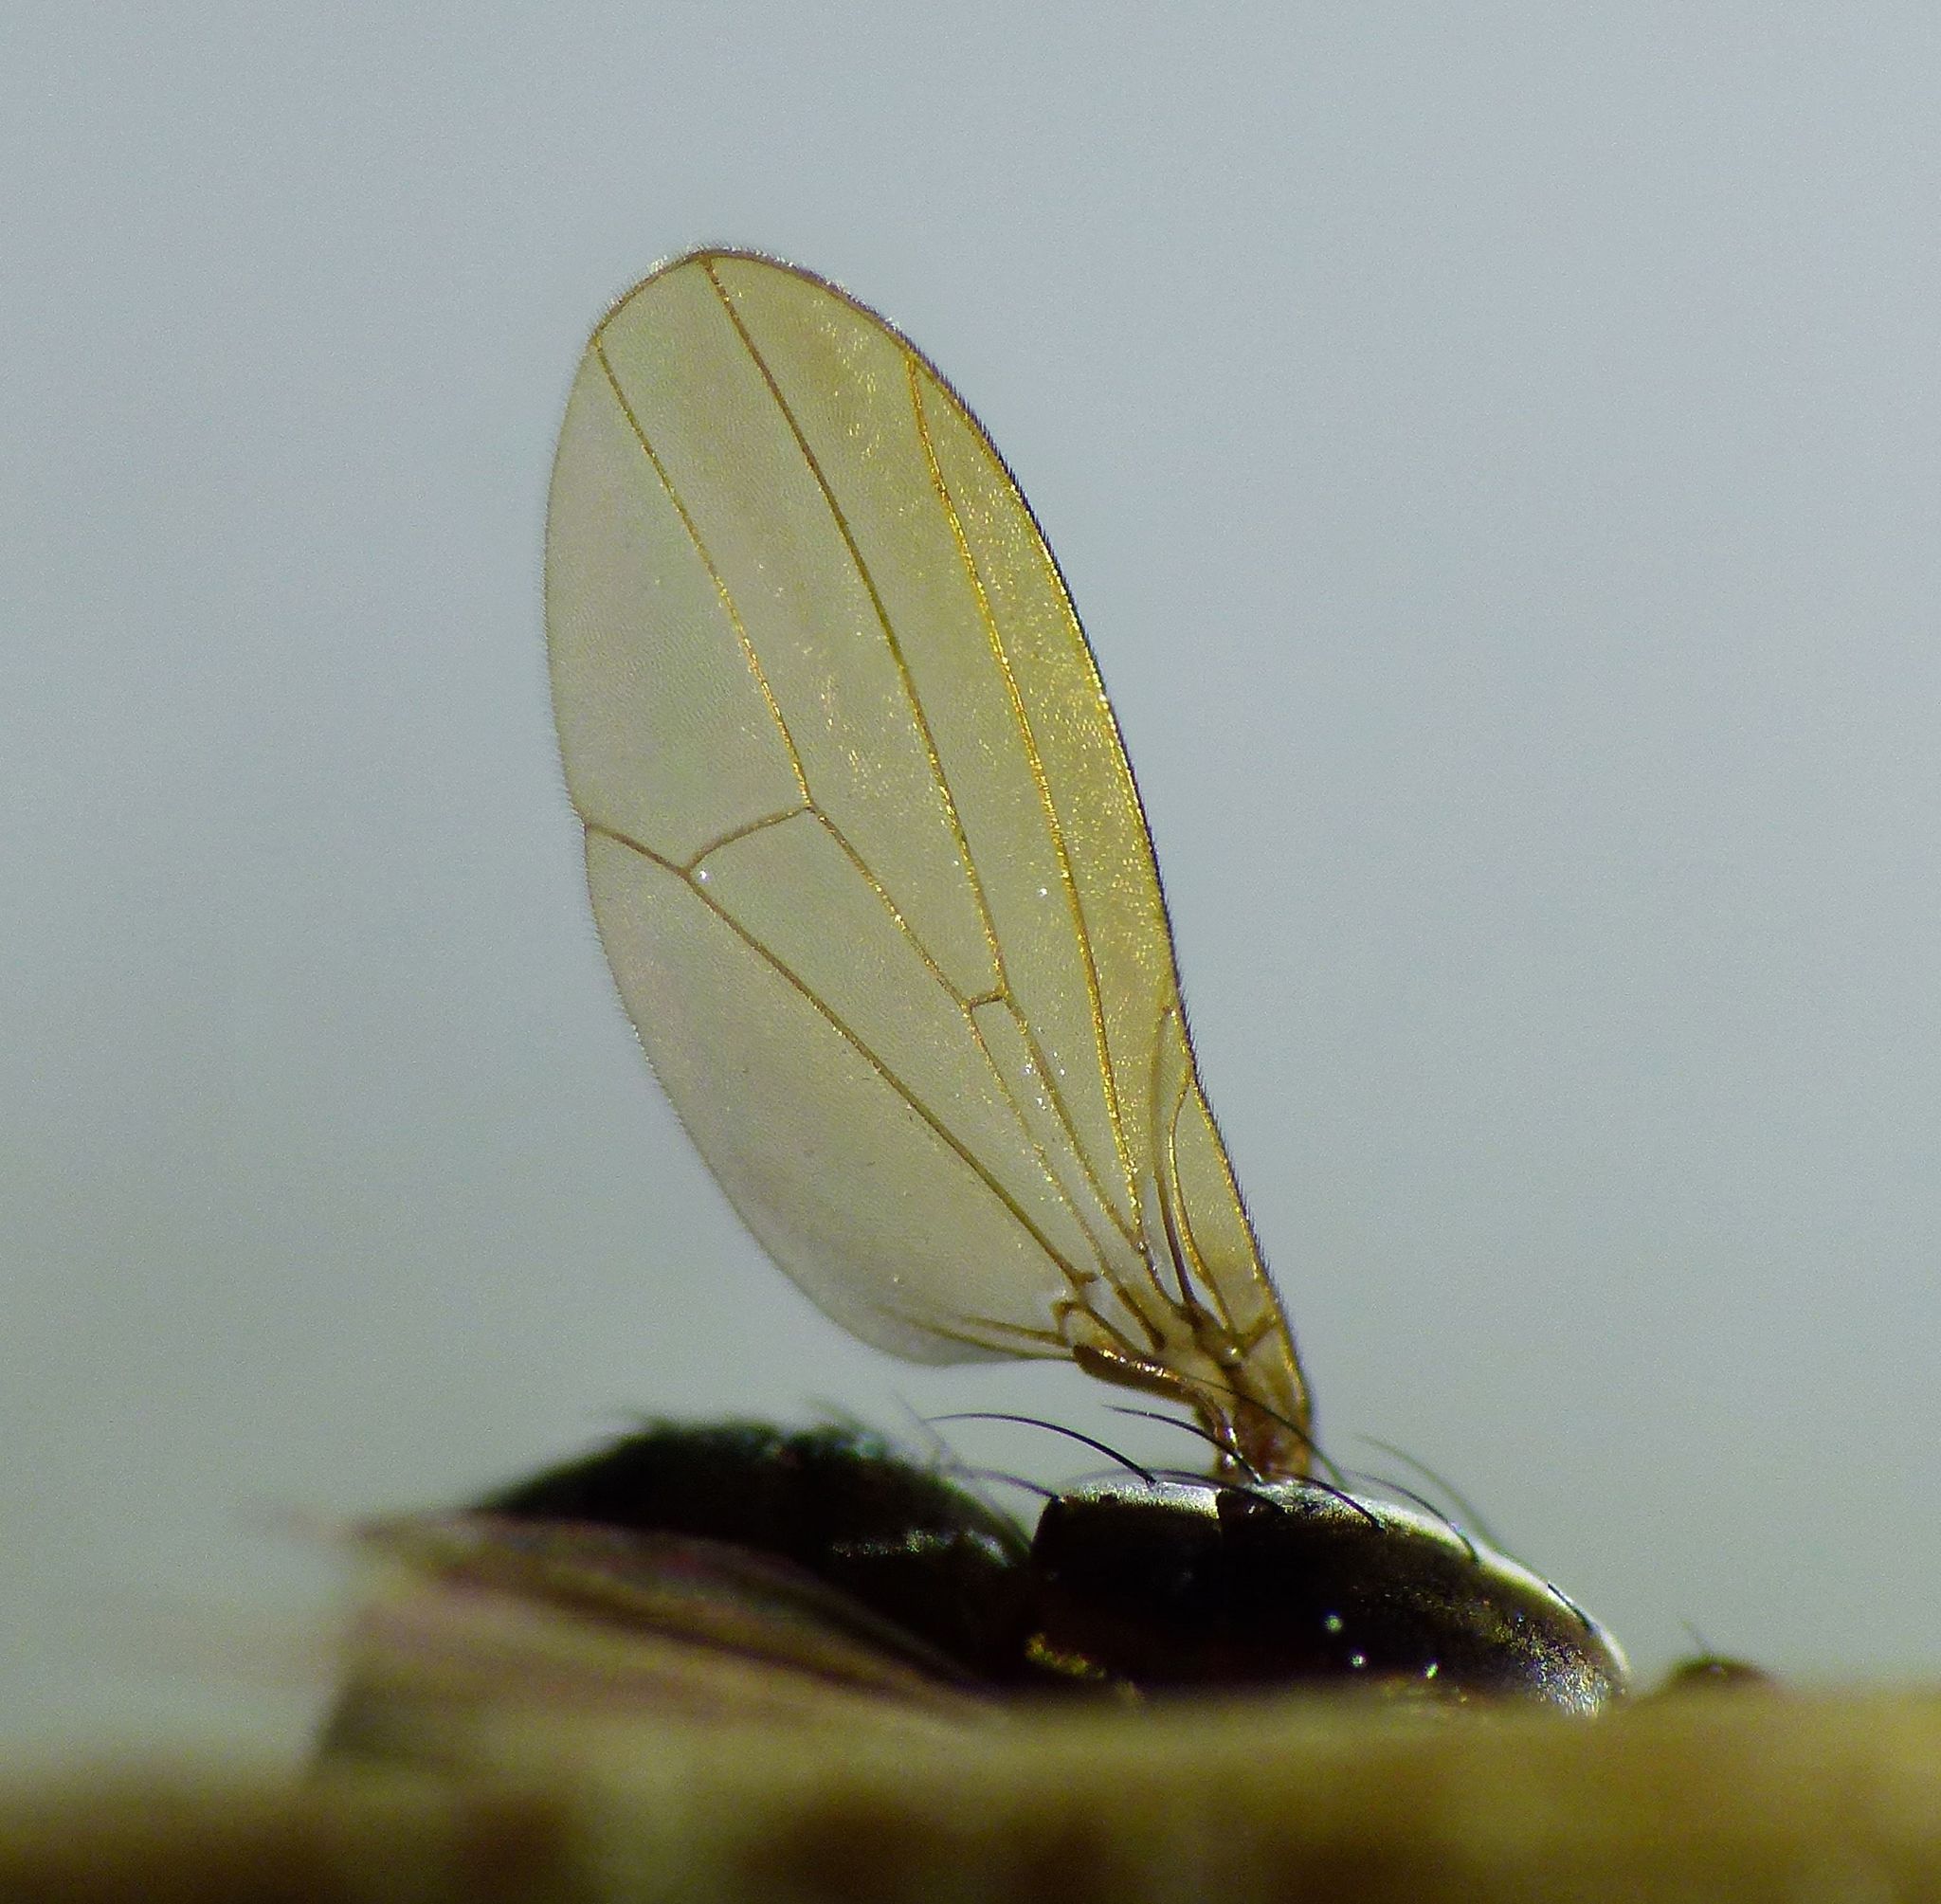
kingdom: Animalia
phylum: Arthropoda
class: Insecta
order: Diptera
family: Lauxaniidae
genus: Poecilohetaerella
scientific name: Poecilohetaerella dubiosa
